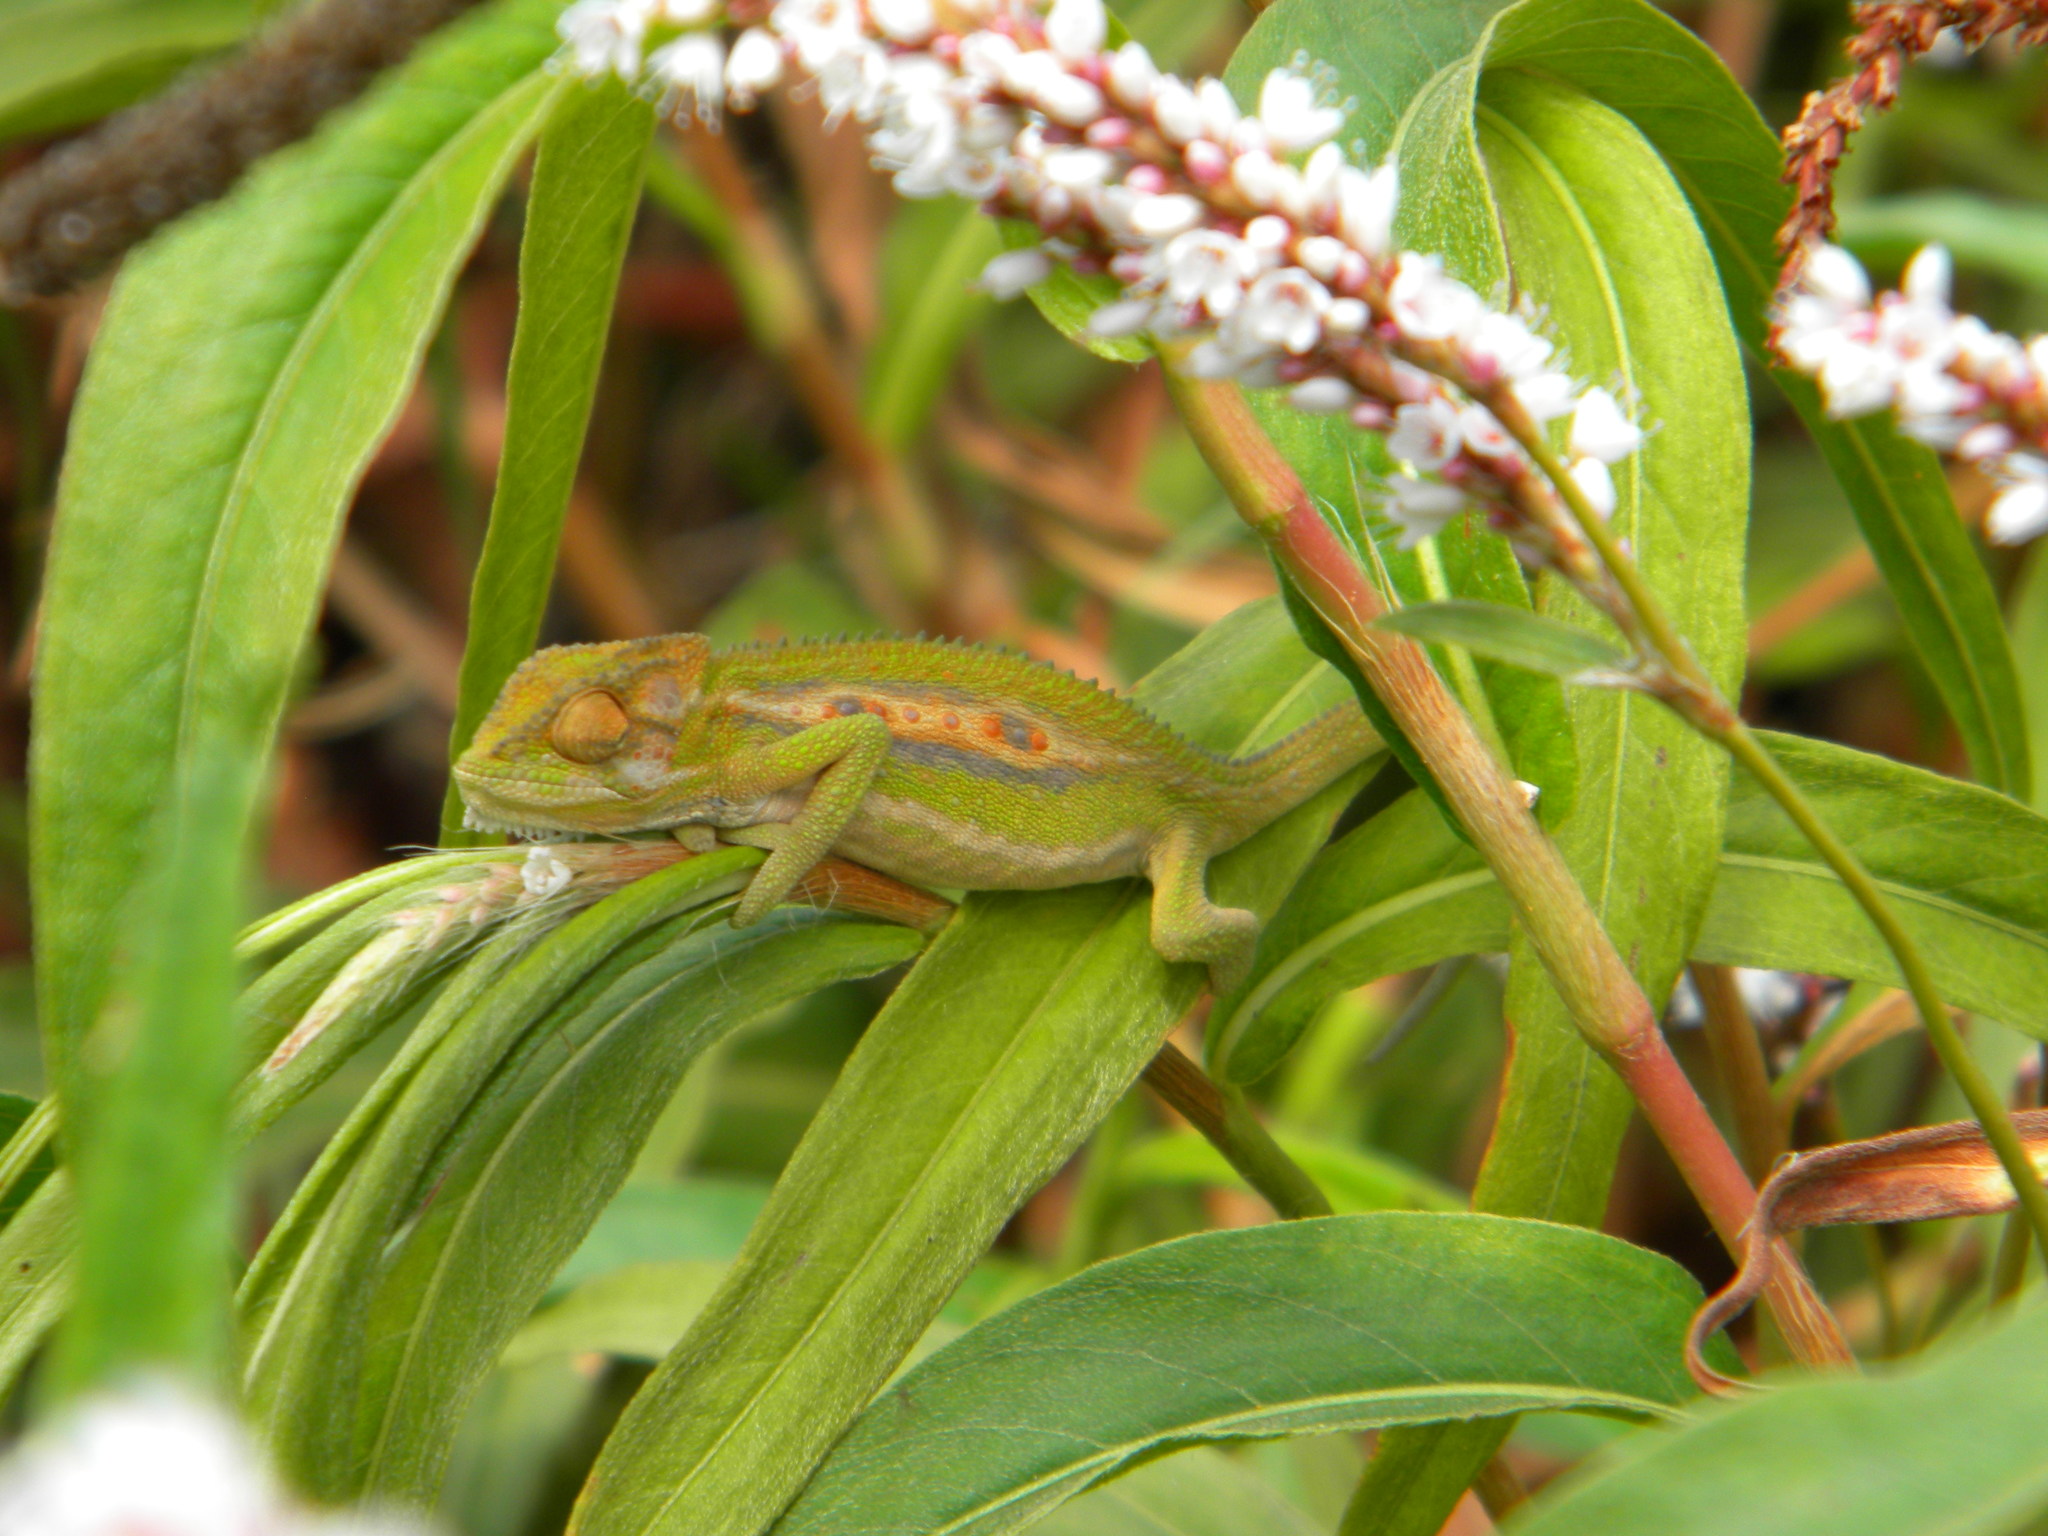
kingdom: Animalia
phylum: Chordata
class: Squamata
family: Chamaeleonidae
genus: Bradypodion
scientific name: Bradypodion pumilum
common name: Cape dwarf chameleon
